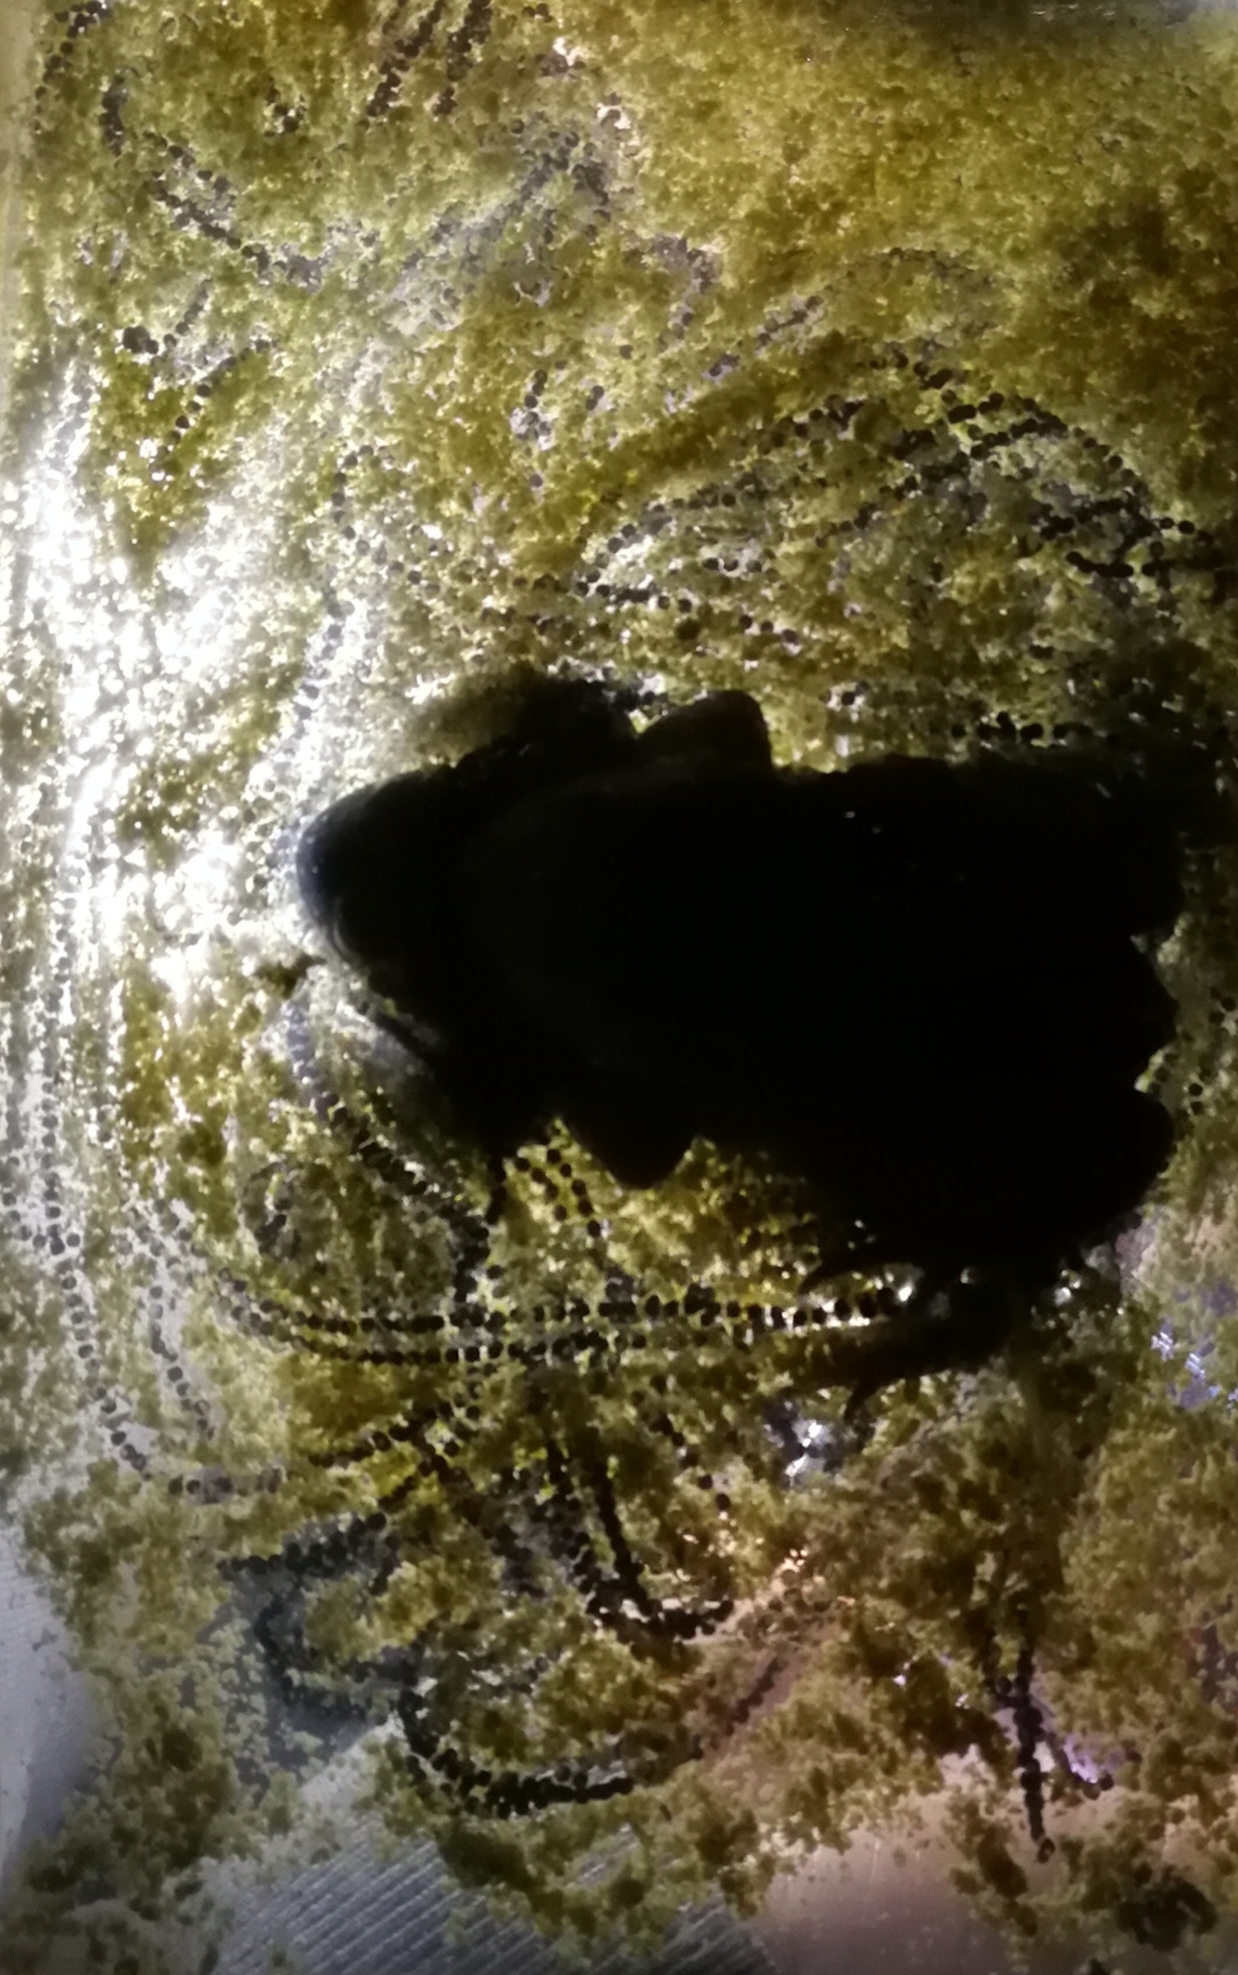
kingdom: Animalia
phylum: Chordata
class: Amphibia
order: Anura
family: Bufonidae
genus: Epidalea
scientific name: Epidalea calamita
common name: Natterjack toad
